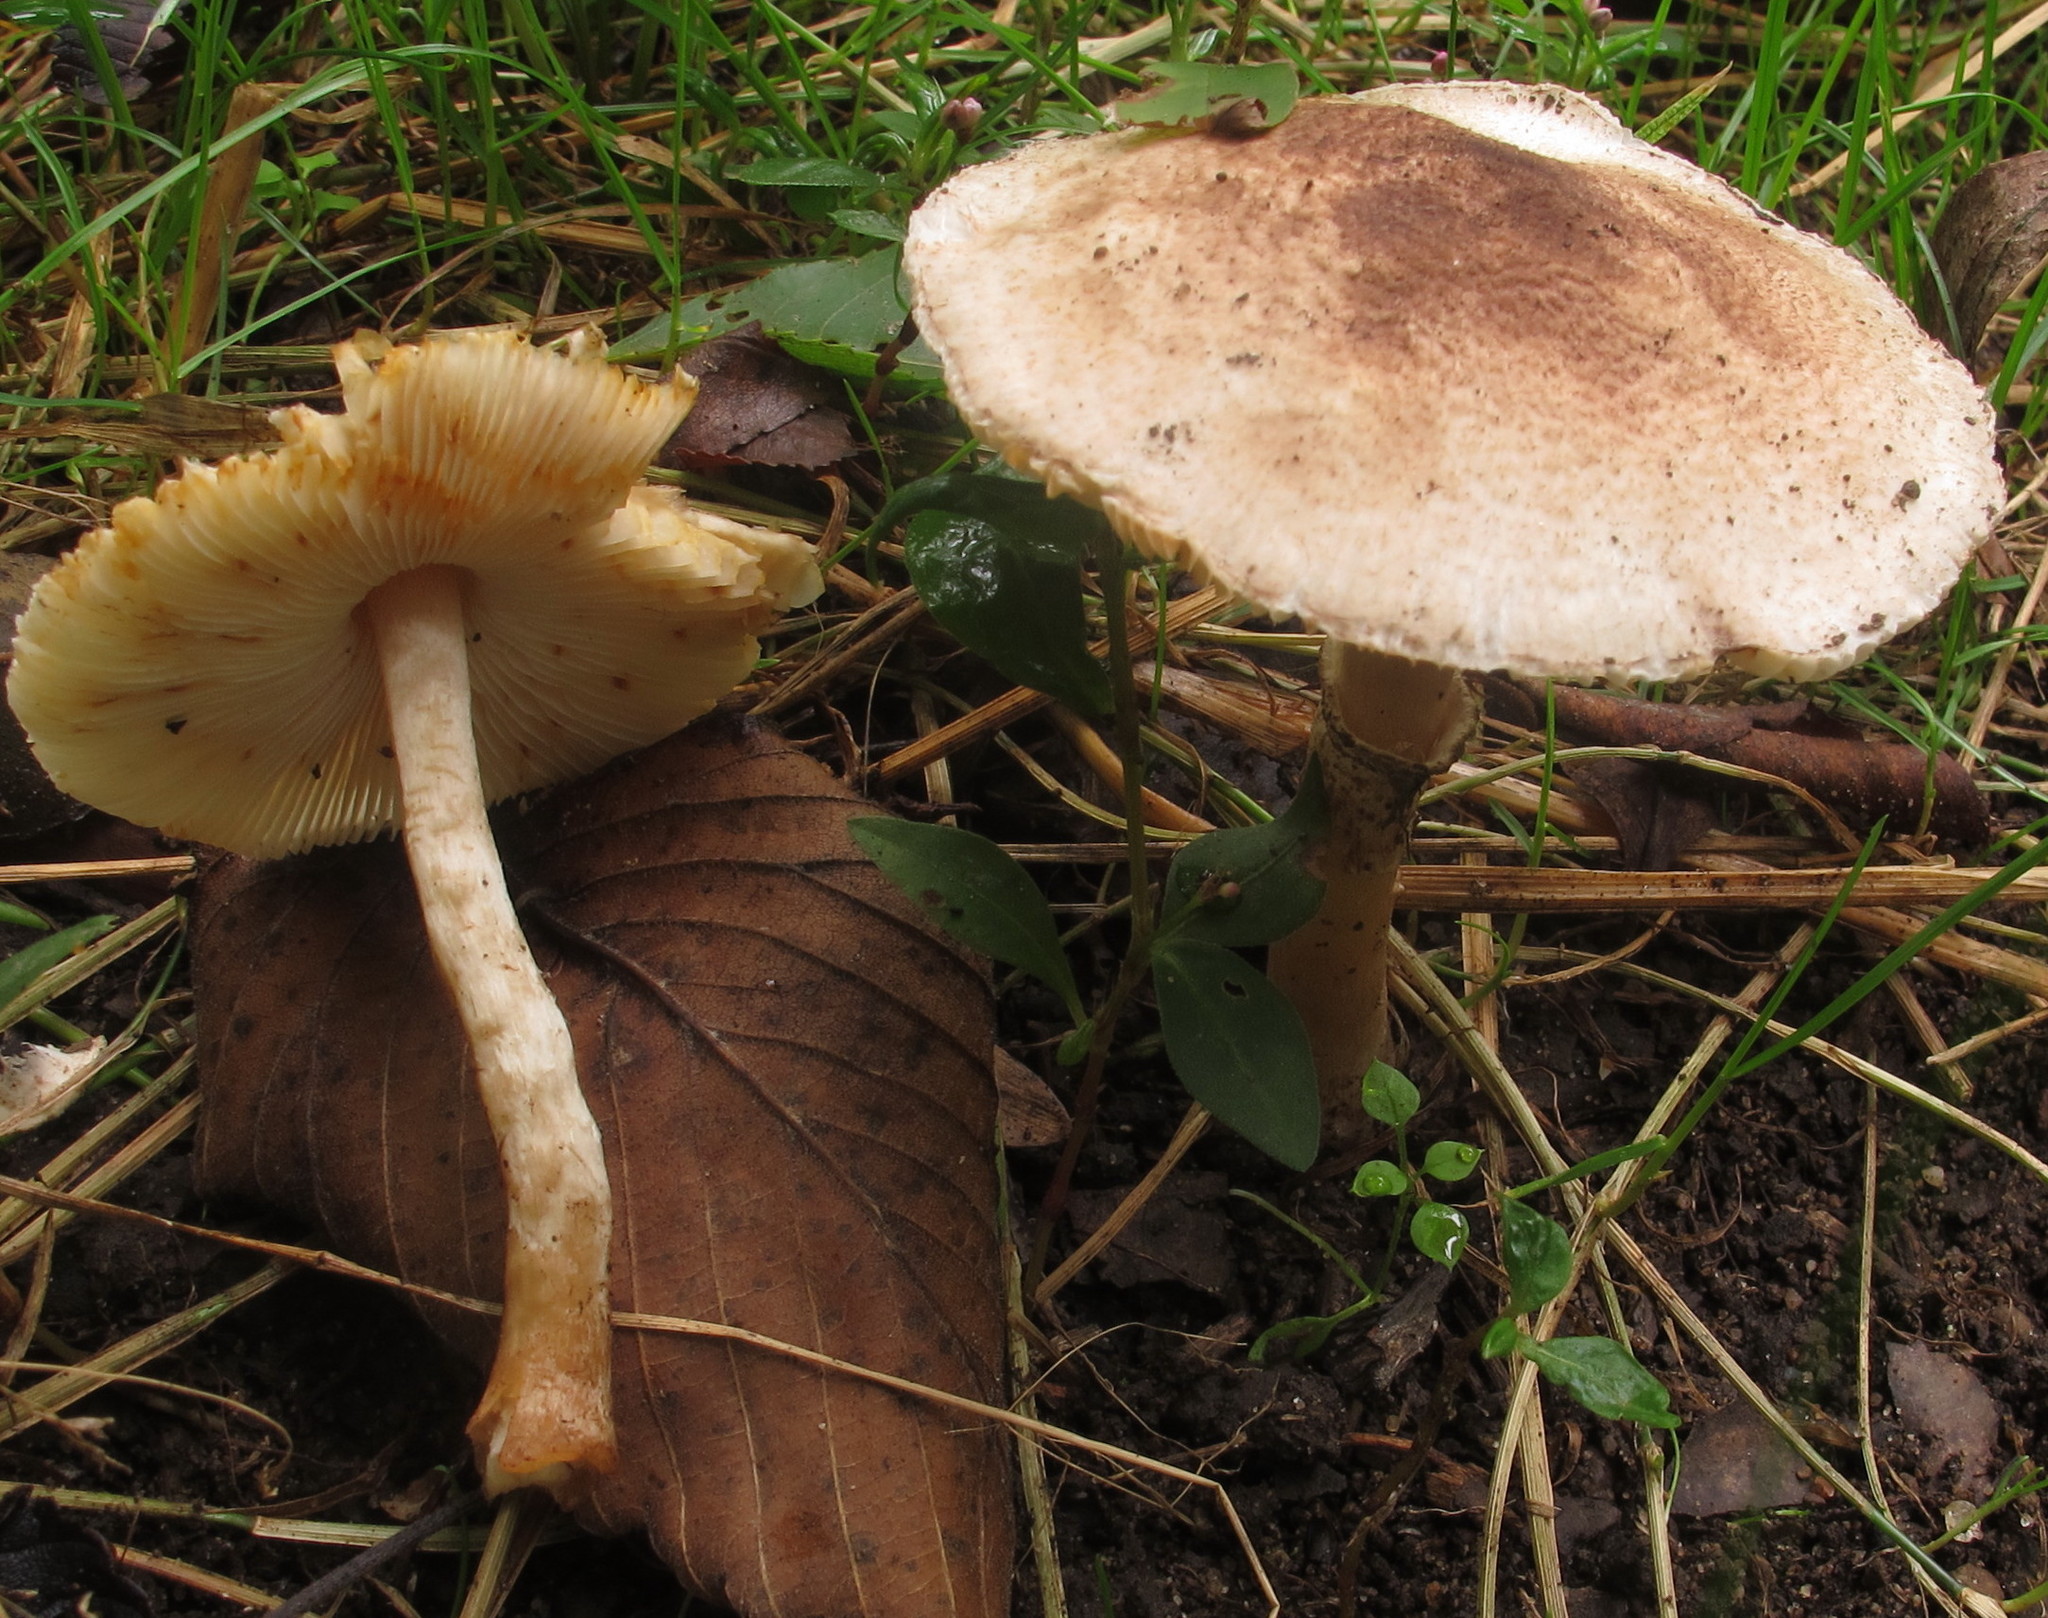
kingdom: Fungi
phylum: Basidiomycota
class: Agaricomycetes
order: Agaricales
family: Agaricaceae
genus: Leucocoprinus
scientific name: Leucocoprinus brunnescens
